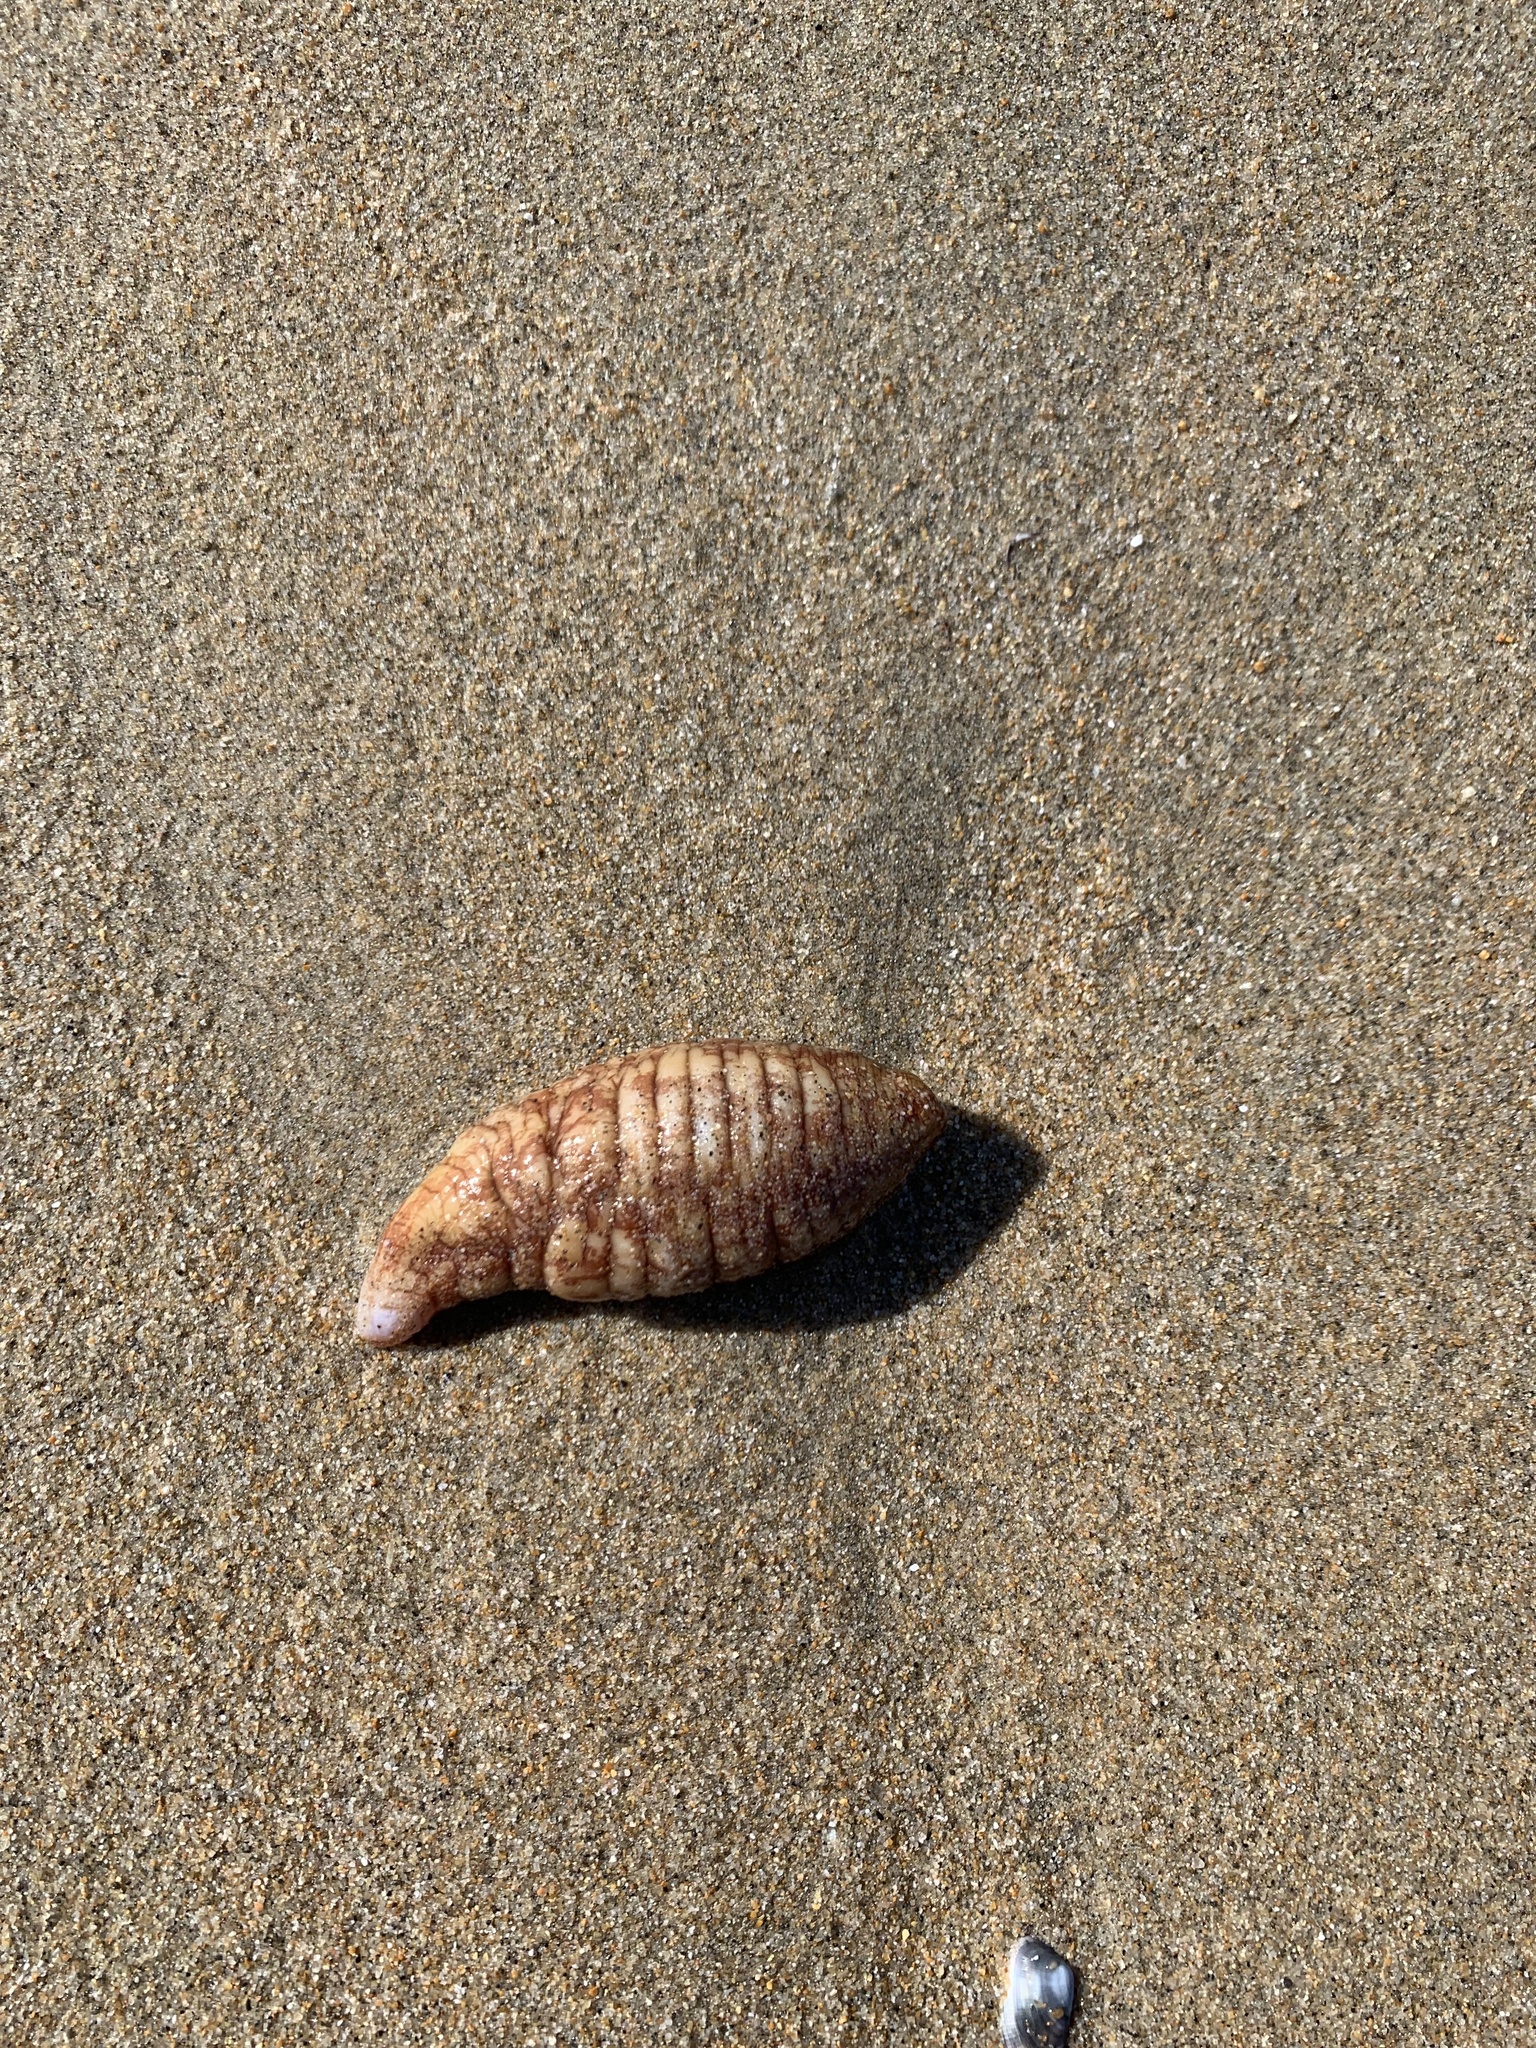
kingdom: Animalia
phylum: Echinodermata
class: Holothuroidea
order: Molpadida
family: Caudinidae
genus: Caudina
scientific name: Caudina arenicola
